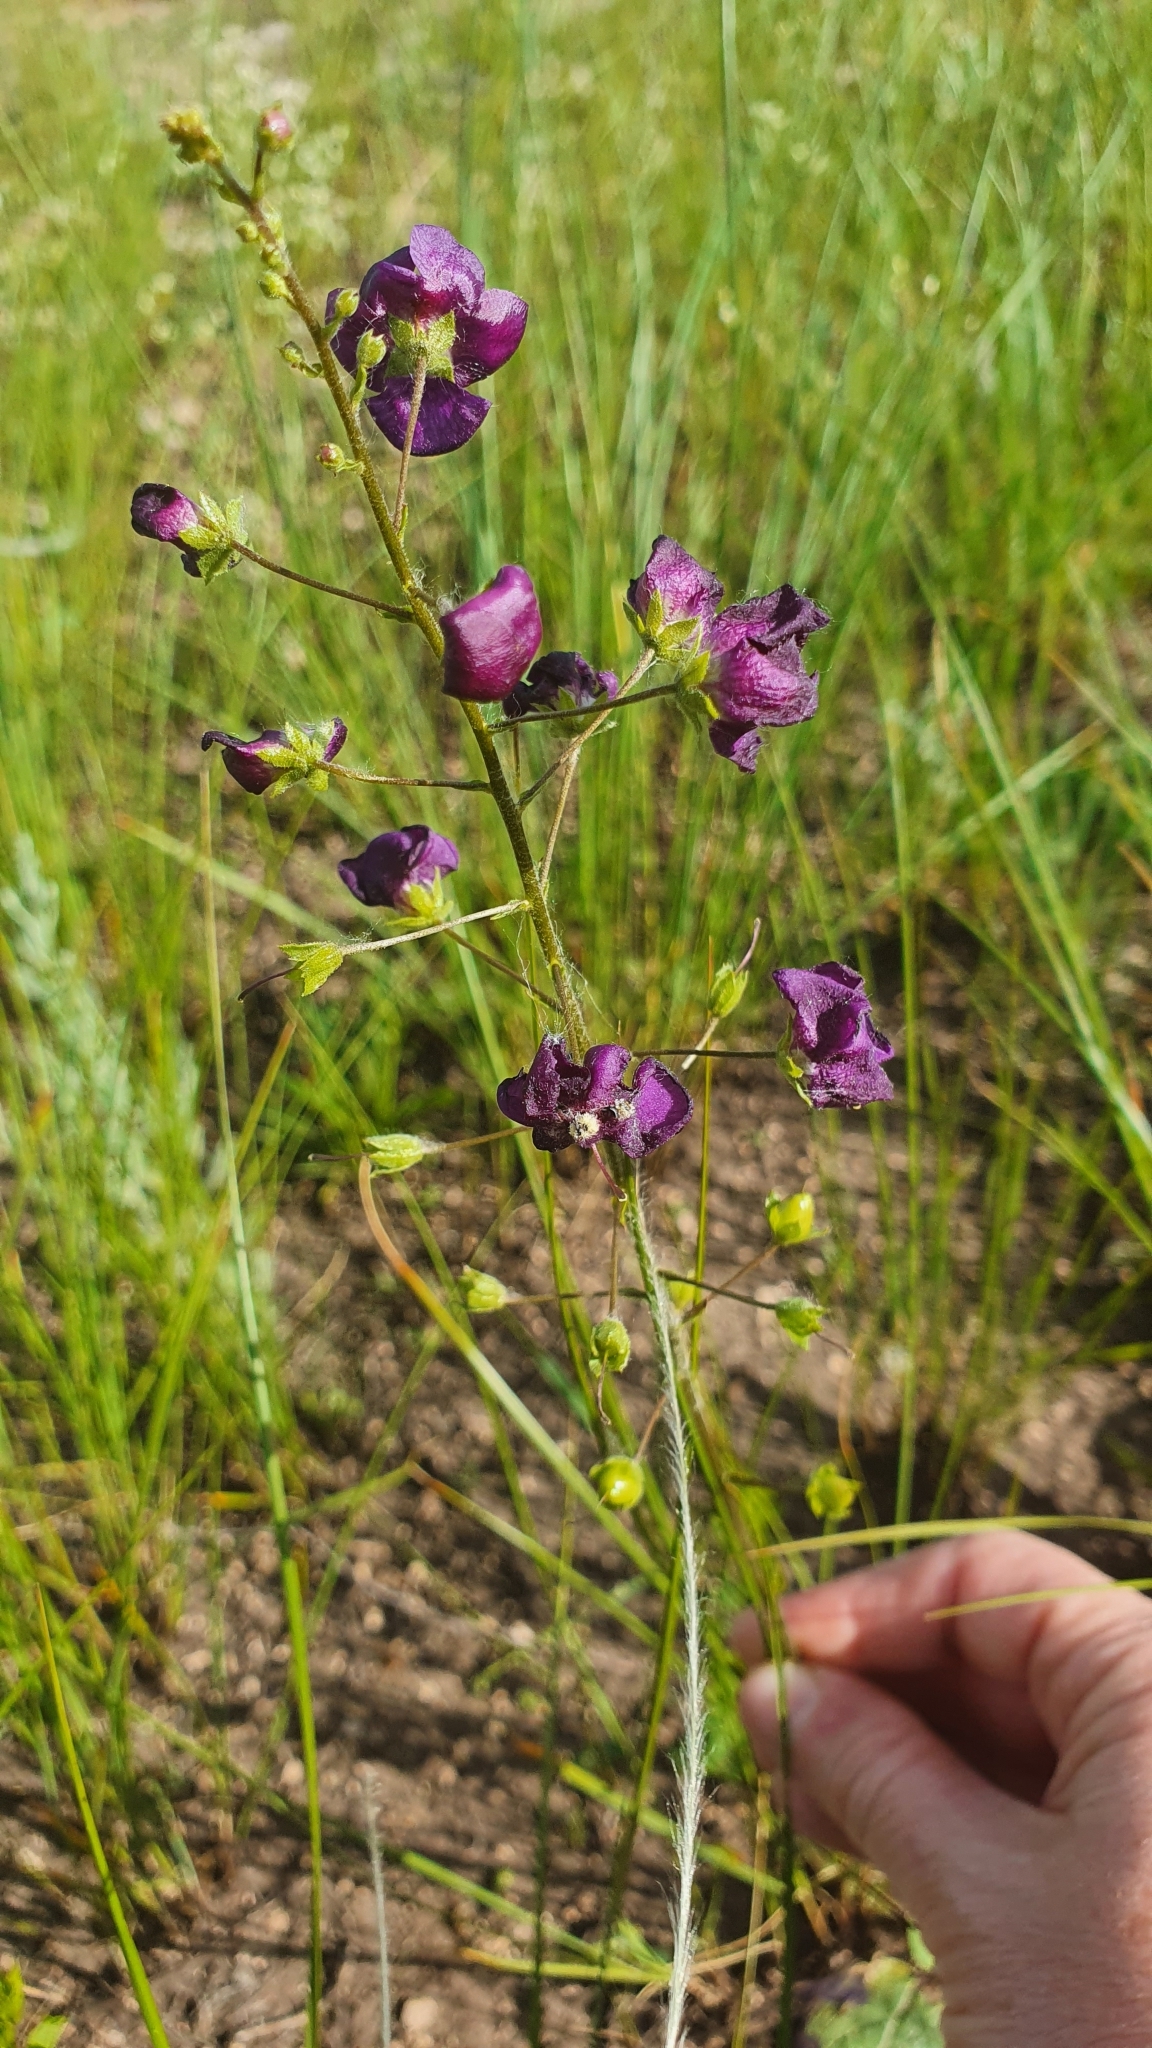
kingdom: Plantae
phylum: Tracheophyta
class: Magnoliopsida
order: Lamiales
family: Scrophulariaceae
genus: Verbascum
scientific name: Verbascum phoeniceum
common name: Purple mullein
